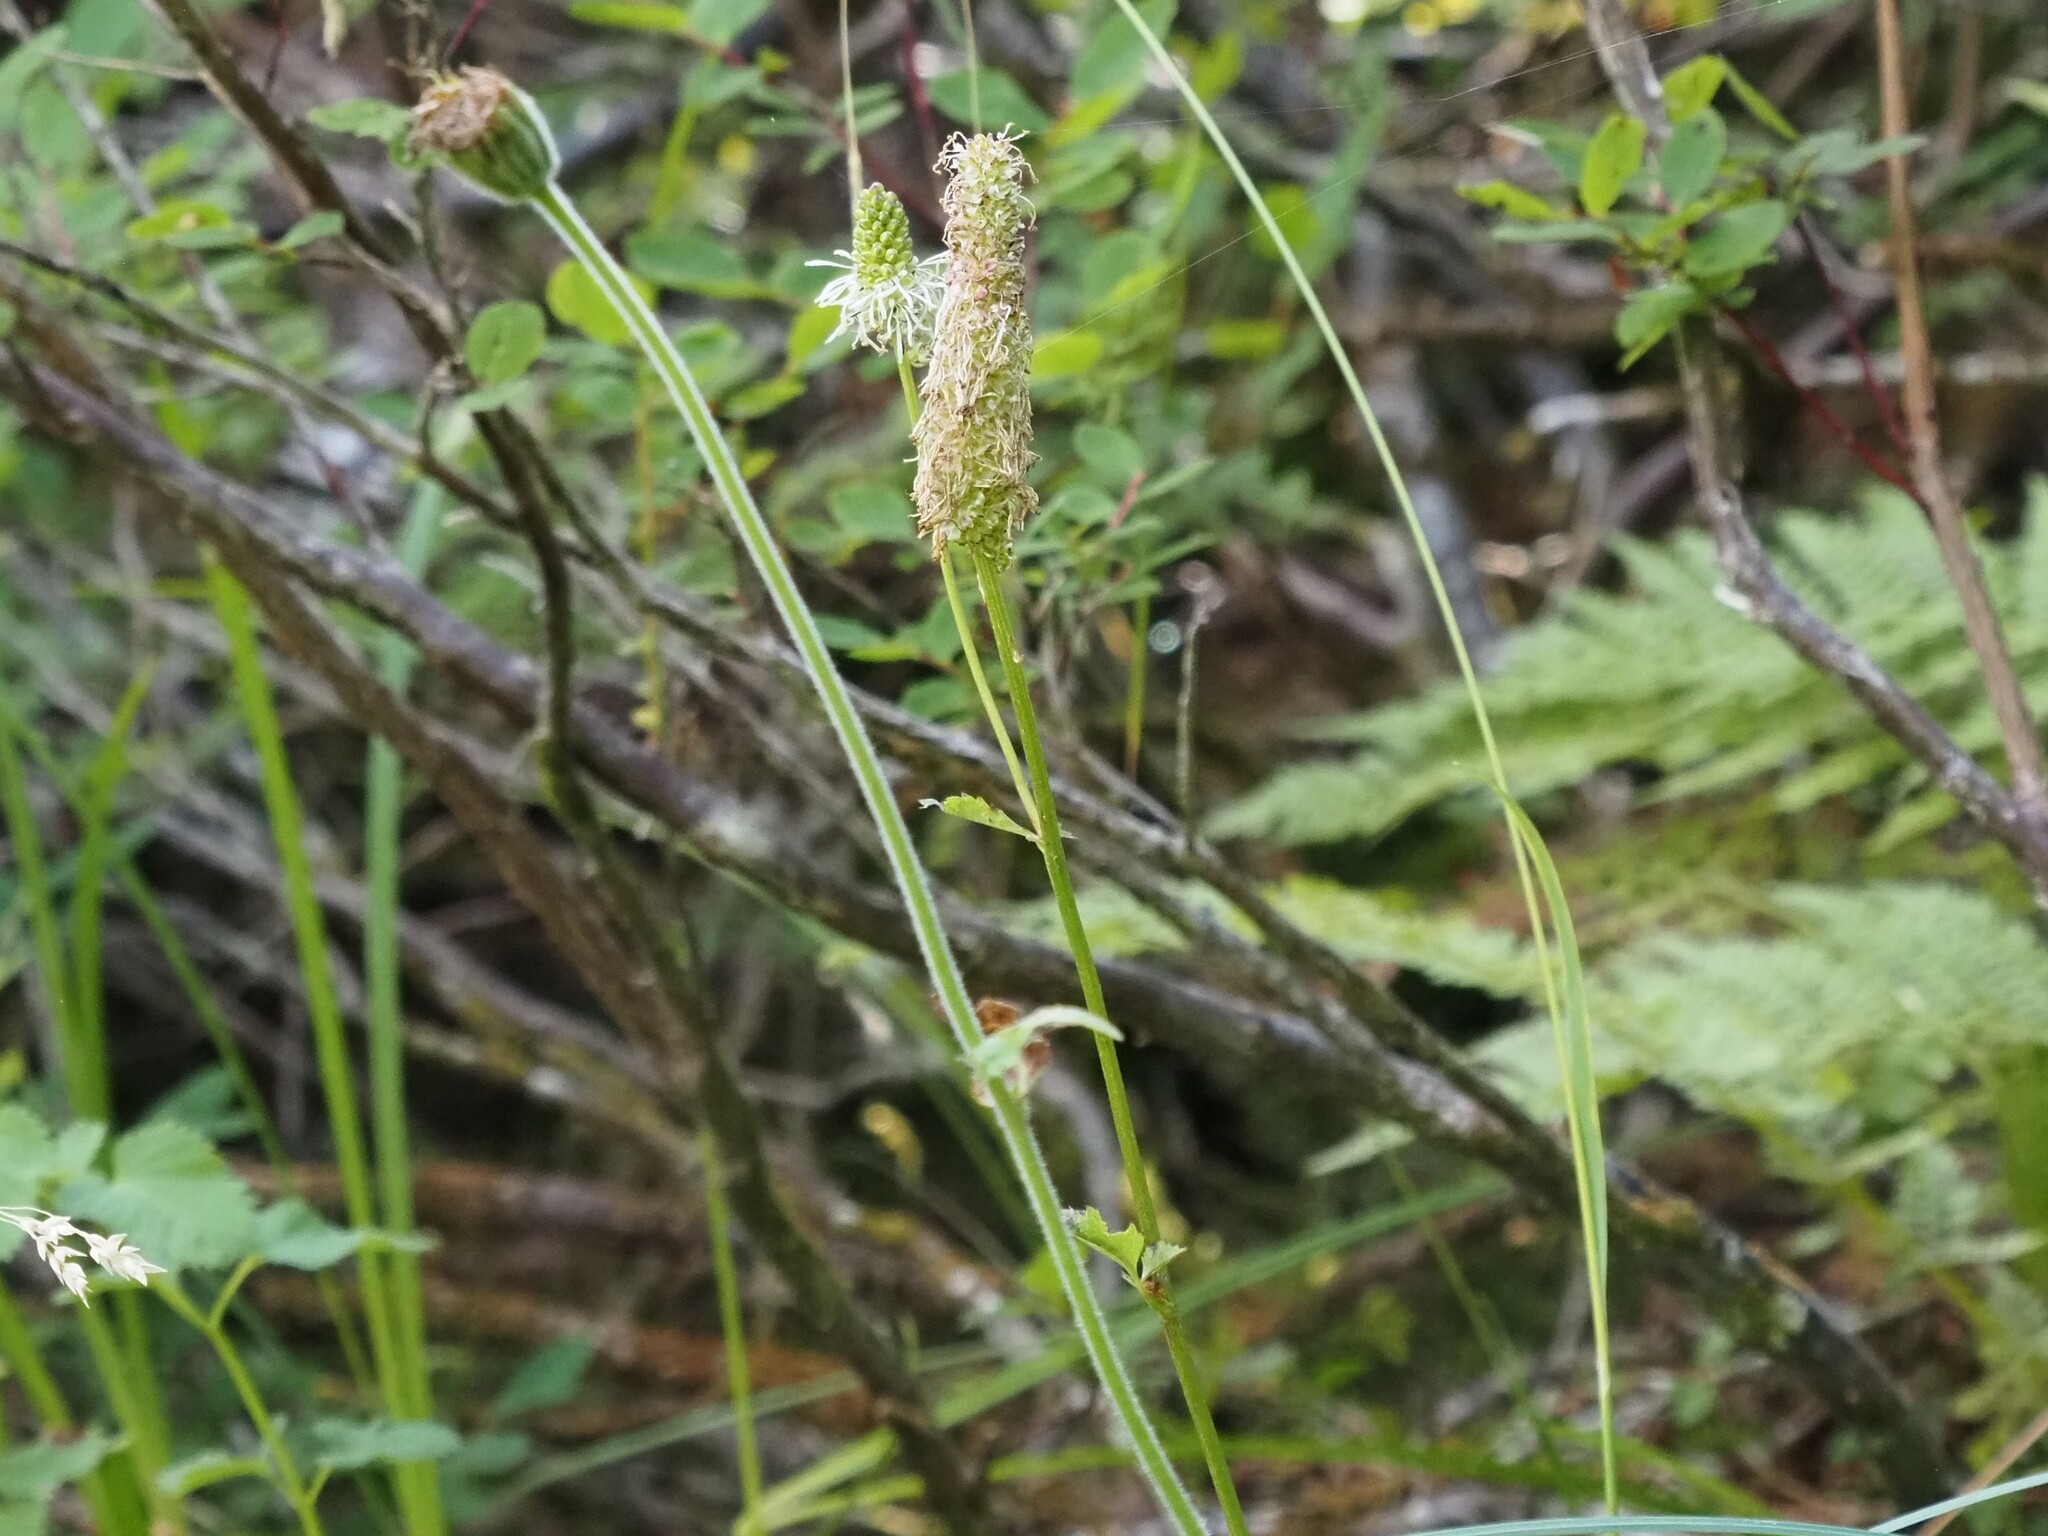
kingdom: Plantae
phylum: Tracheophyta
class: Magnoliopsida
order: Rosales
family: Rosaceae
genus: Sanguisorba
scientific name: Sanguisorba stipulata
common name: Sitka burnet
